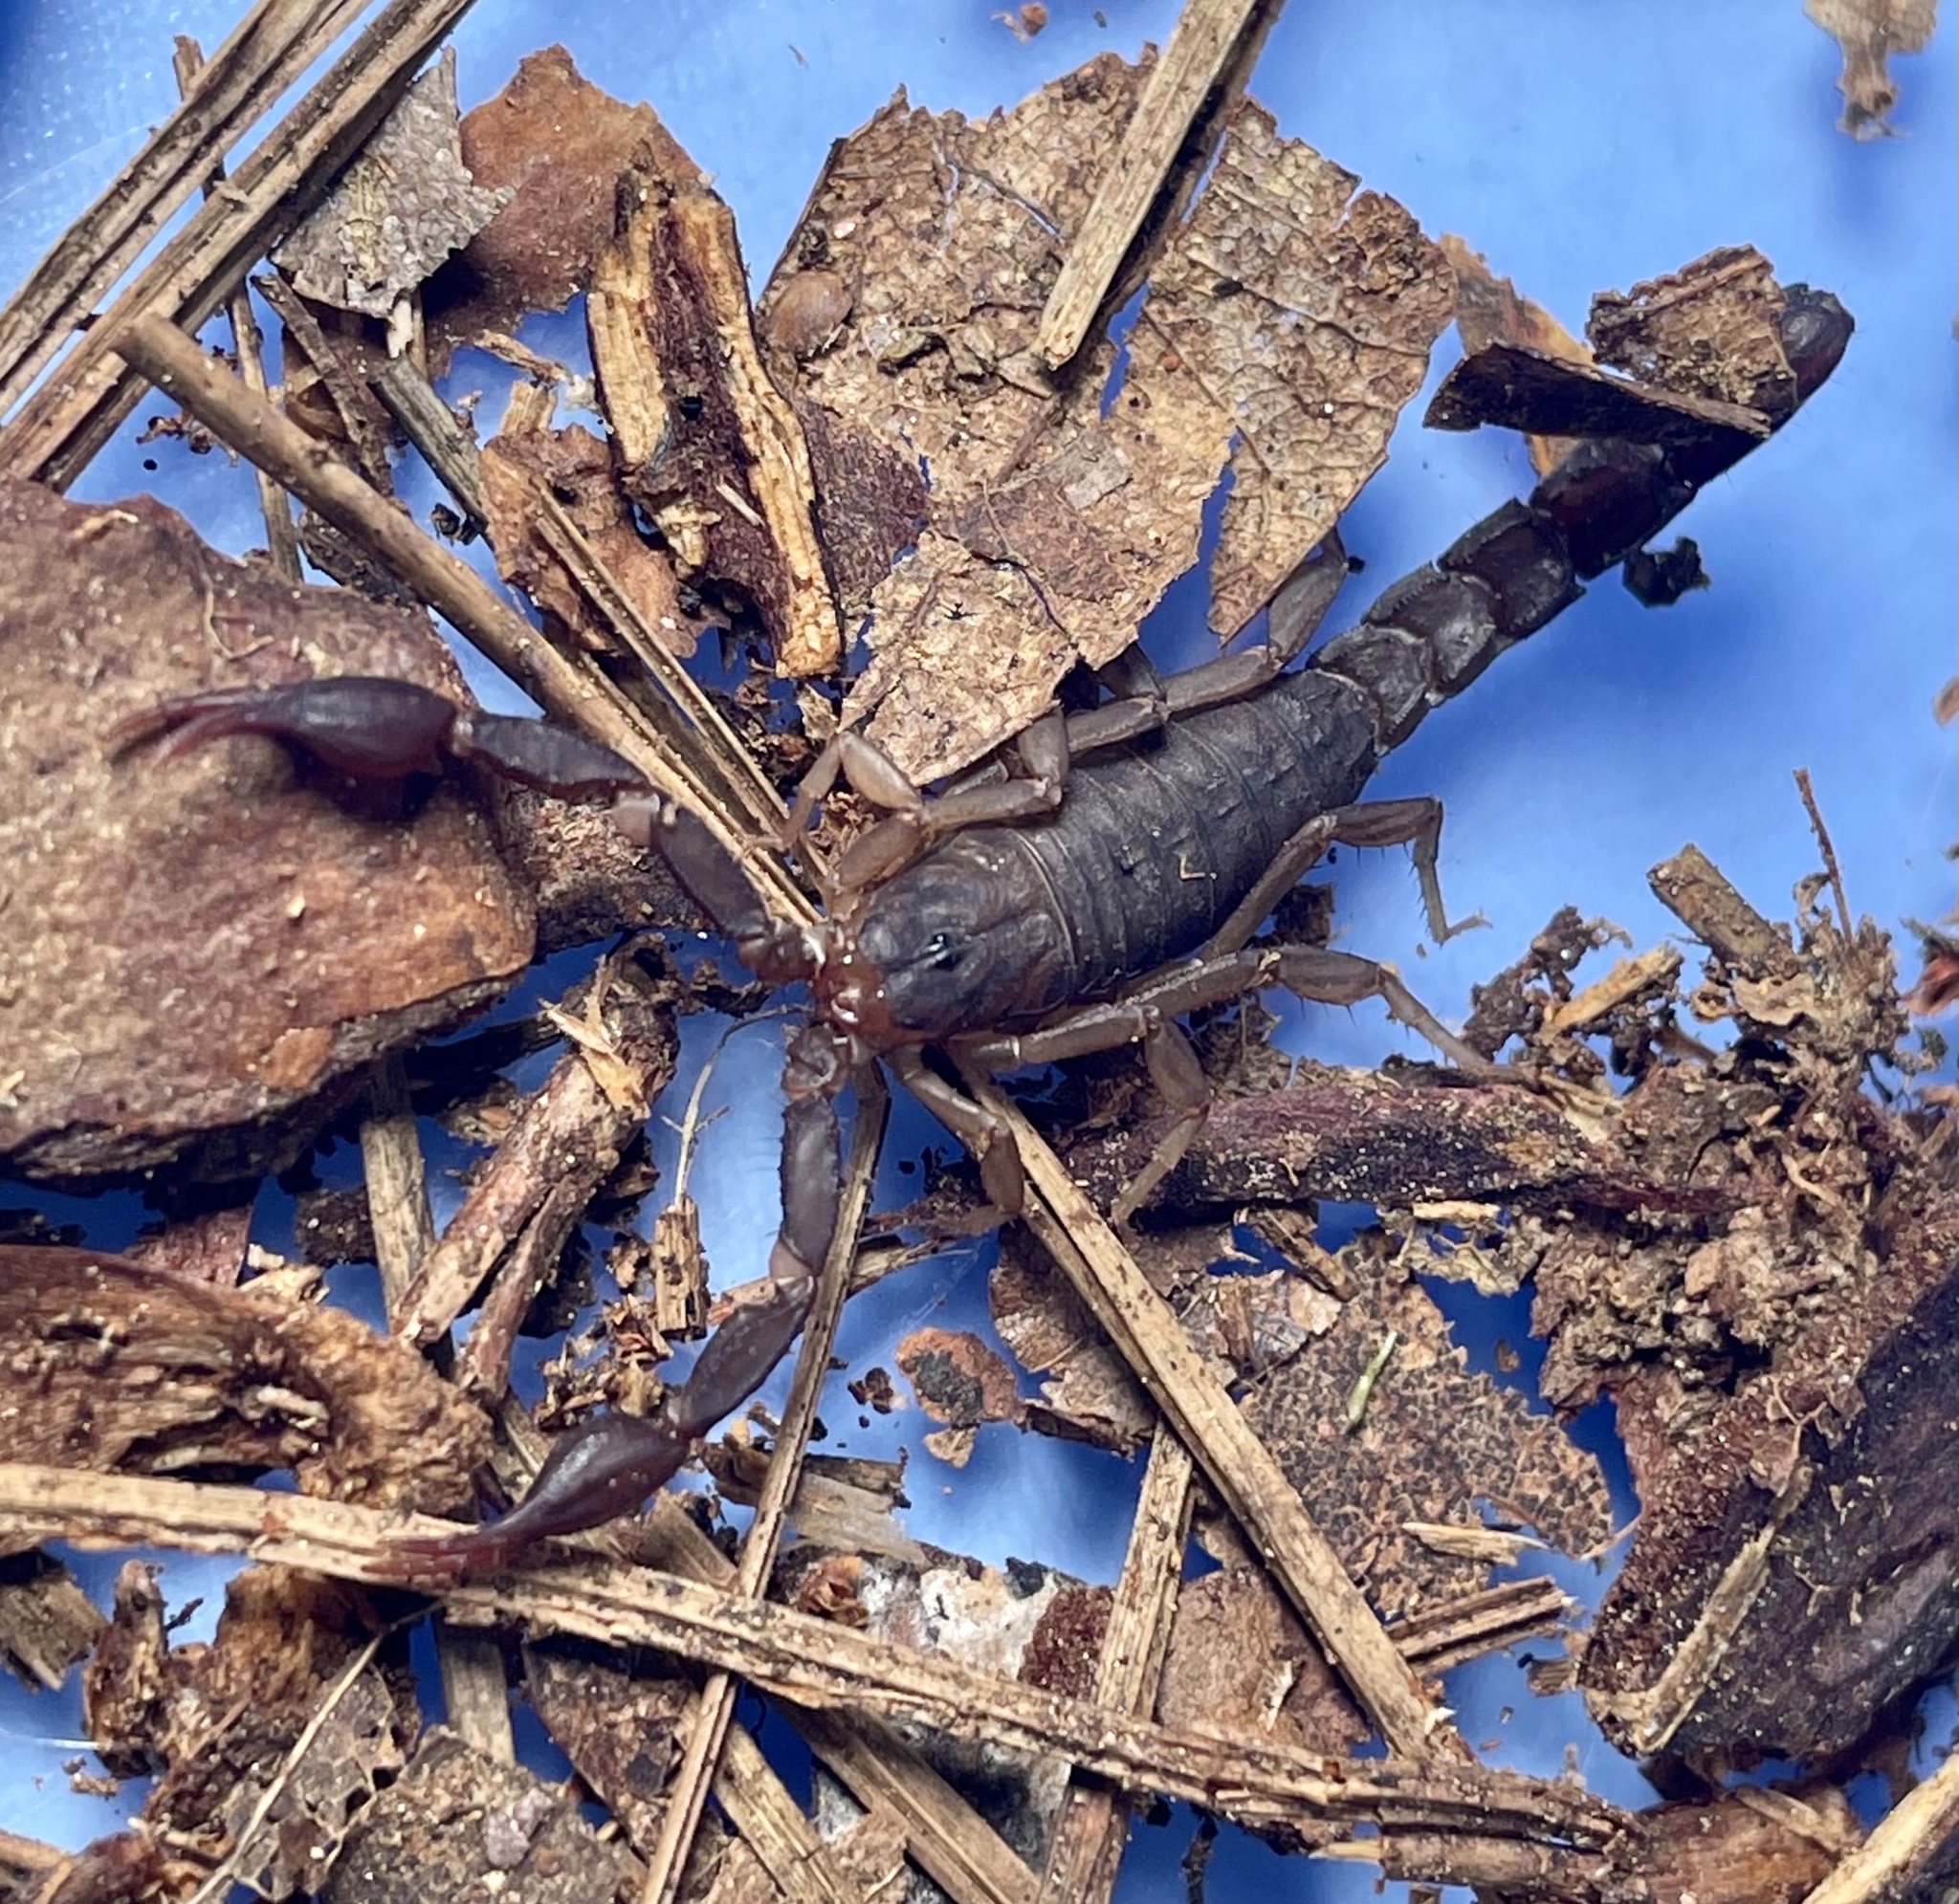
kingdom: Animalia
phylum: Arthropoda
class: Arachnida
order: Scorpiones
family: Vaejovidae
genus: Vaejovis
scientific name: Vaejovis carolinianus
